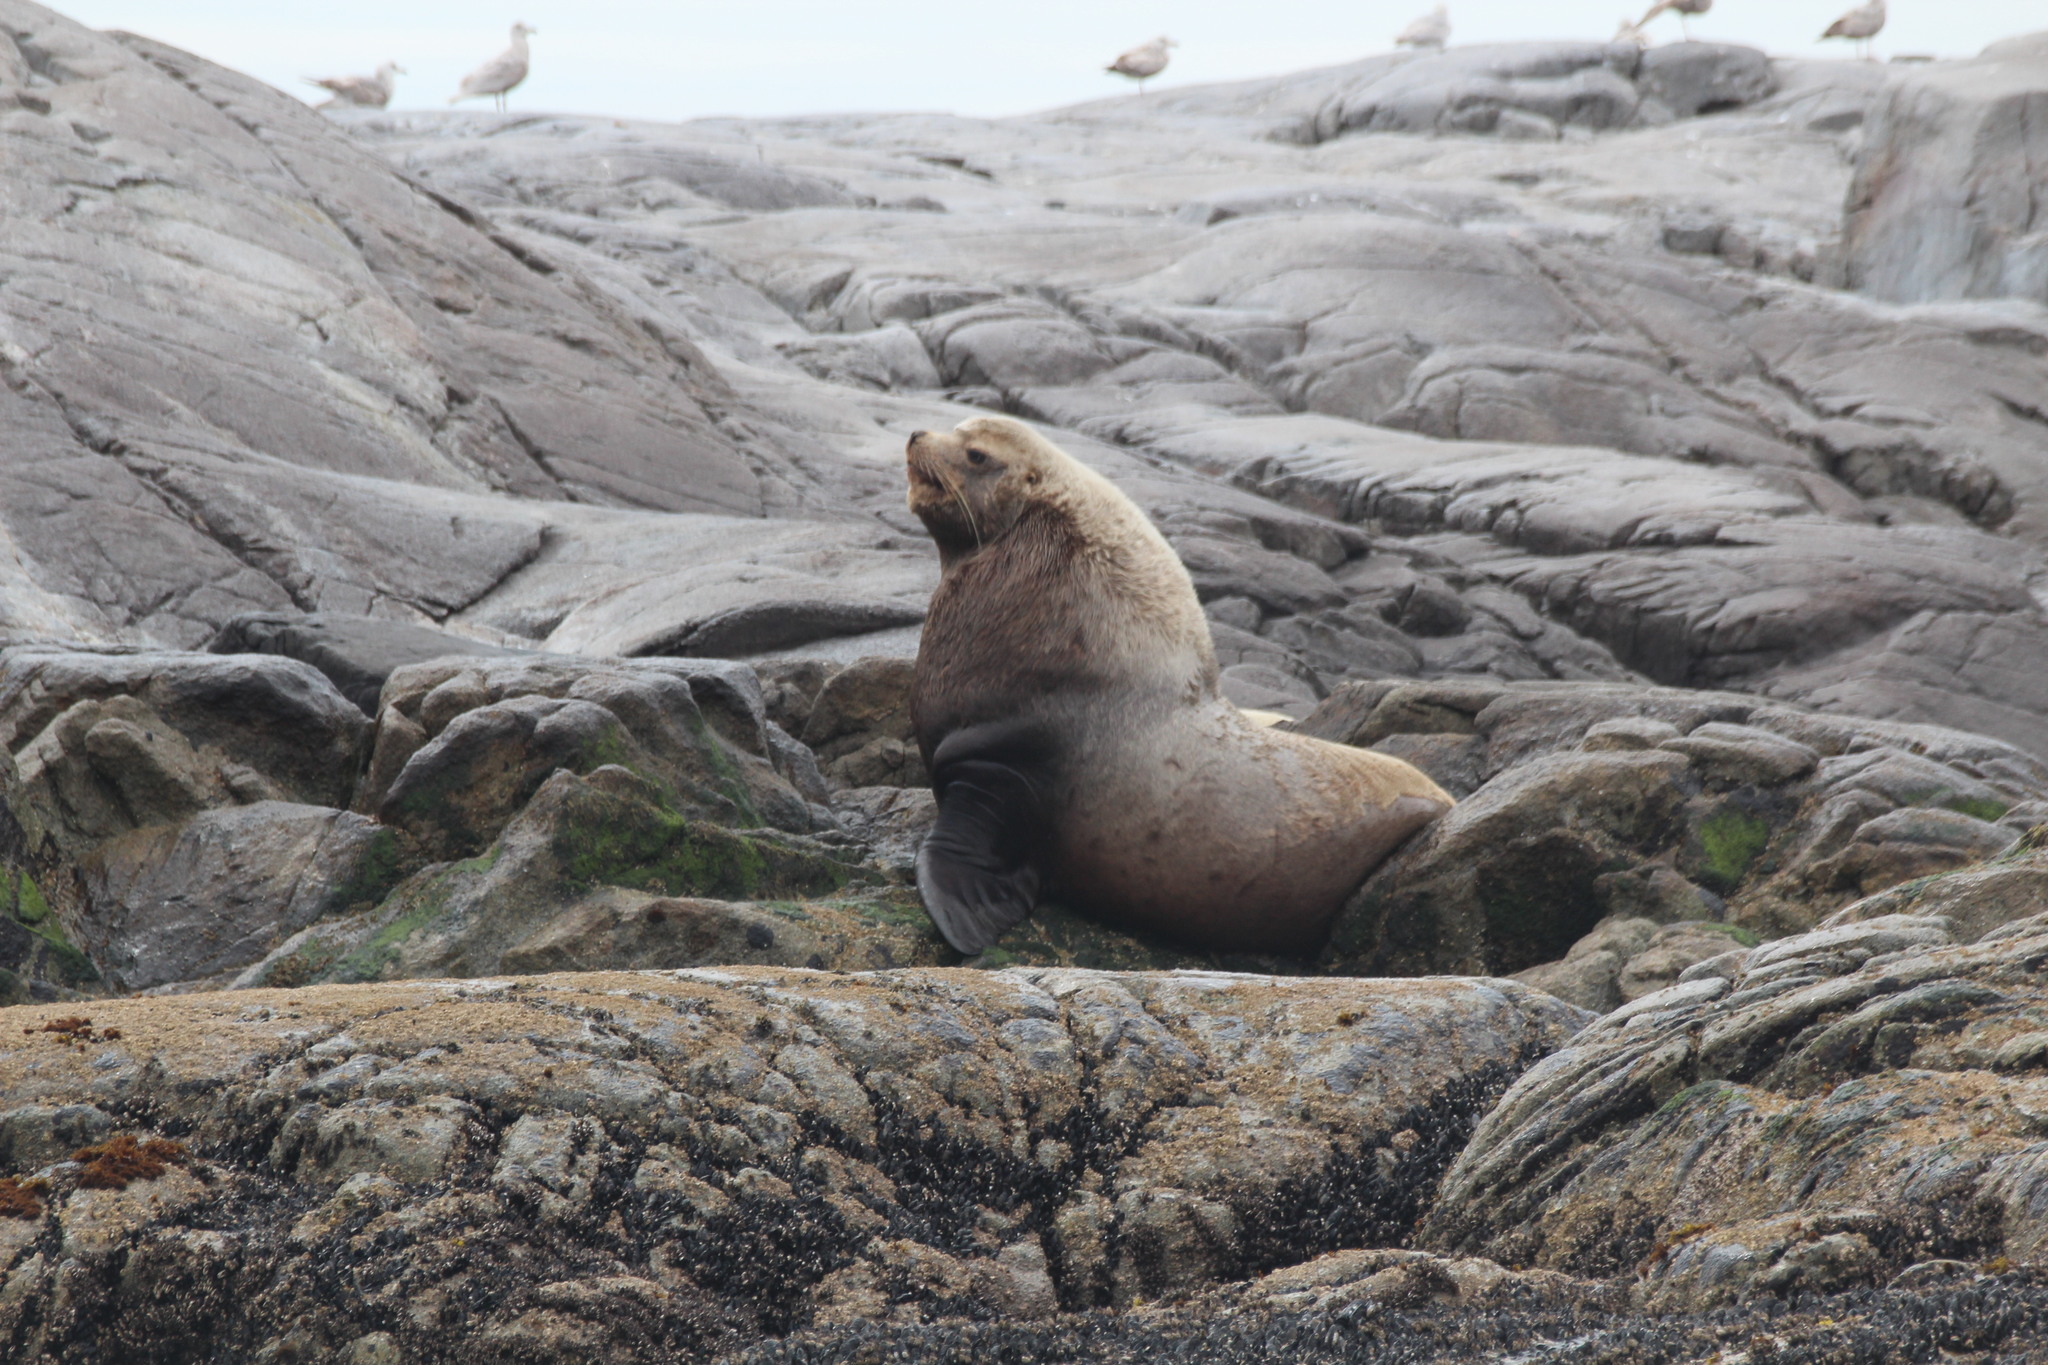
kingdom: Animalia
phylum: Chordata
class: Mammalia
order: Carnivora
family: Otariidae
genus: Eumetopias
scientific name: Eumetopias jubatus
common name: Steller sea lion
